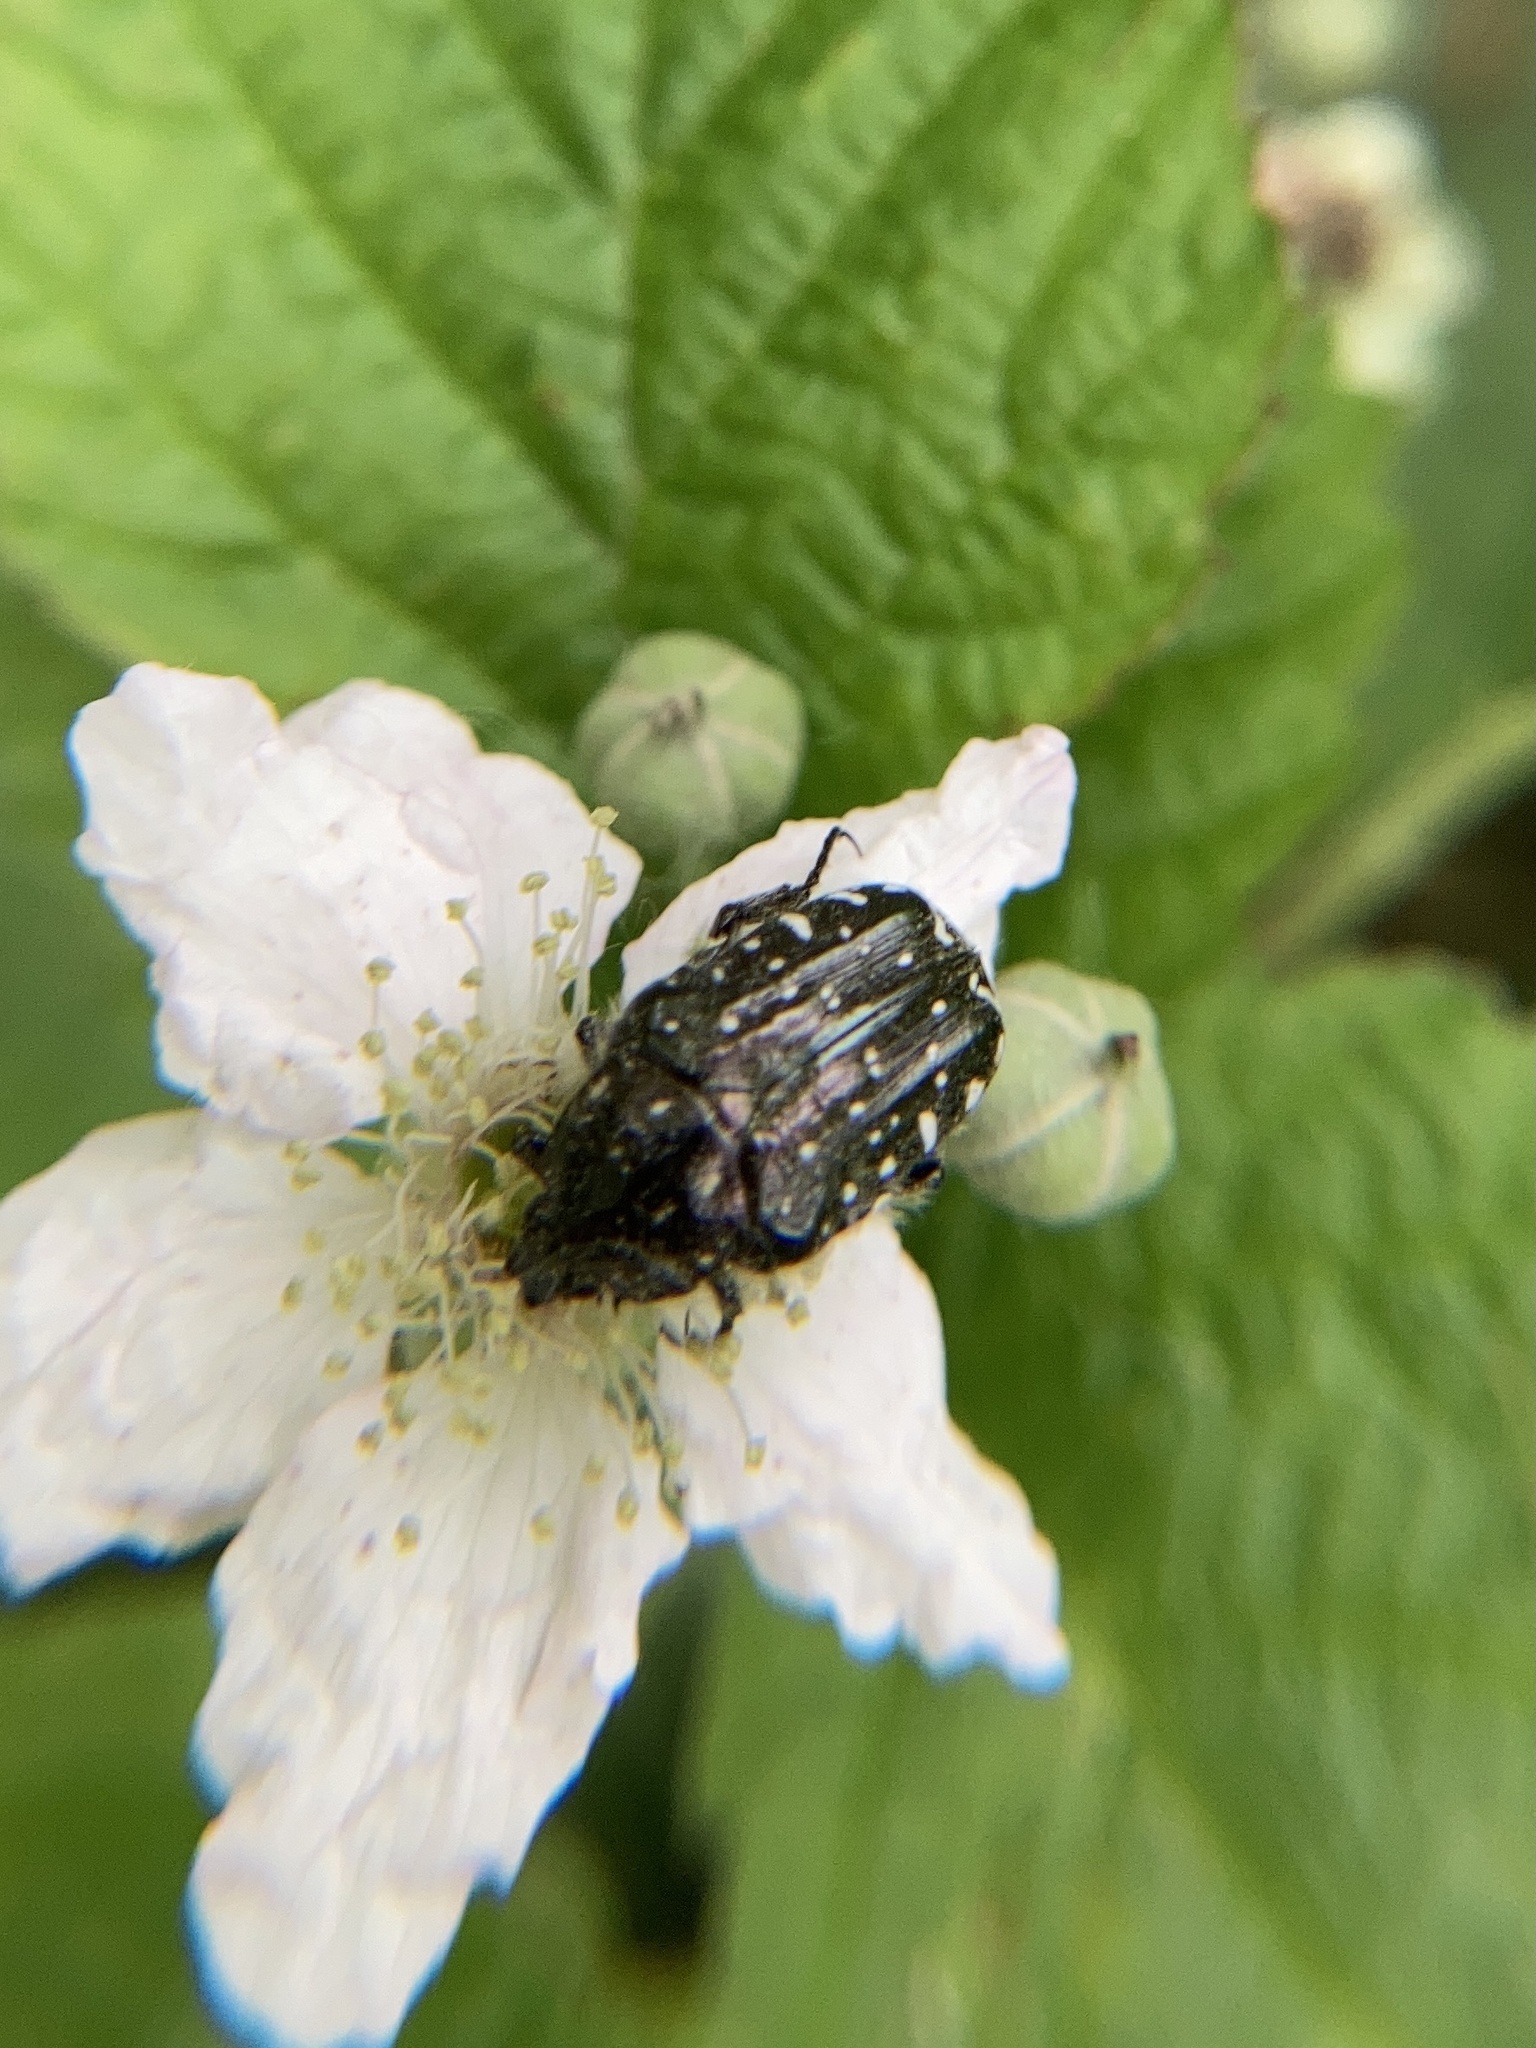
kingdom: Animalia
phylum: Arthropoda
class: Insecta
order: Coleoptera
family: Scarabaeidae
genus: Oxythyrea
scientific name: Oxythyrea funesta
